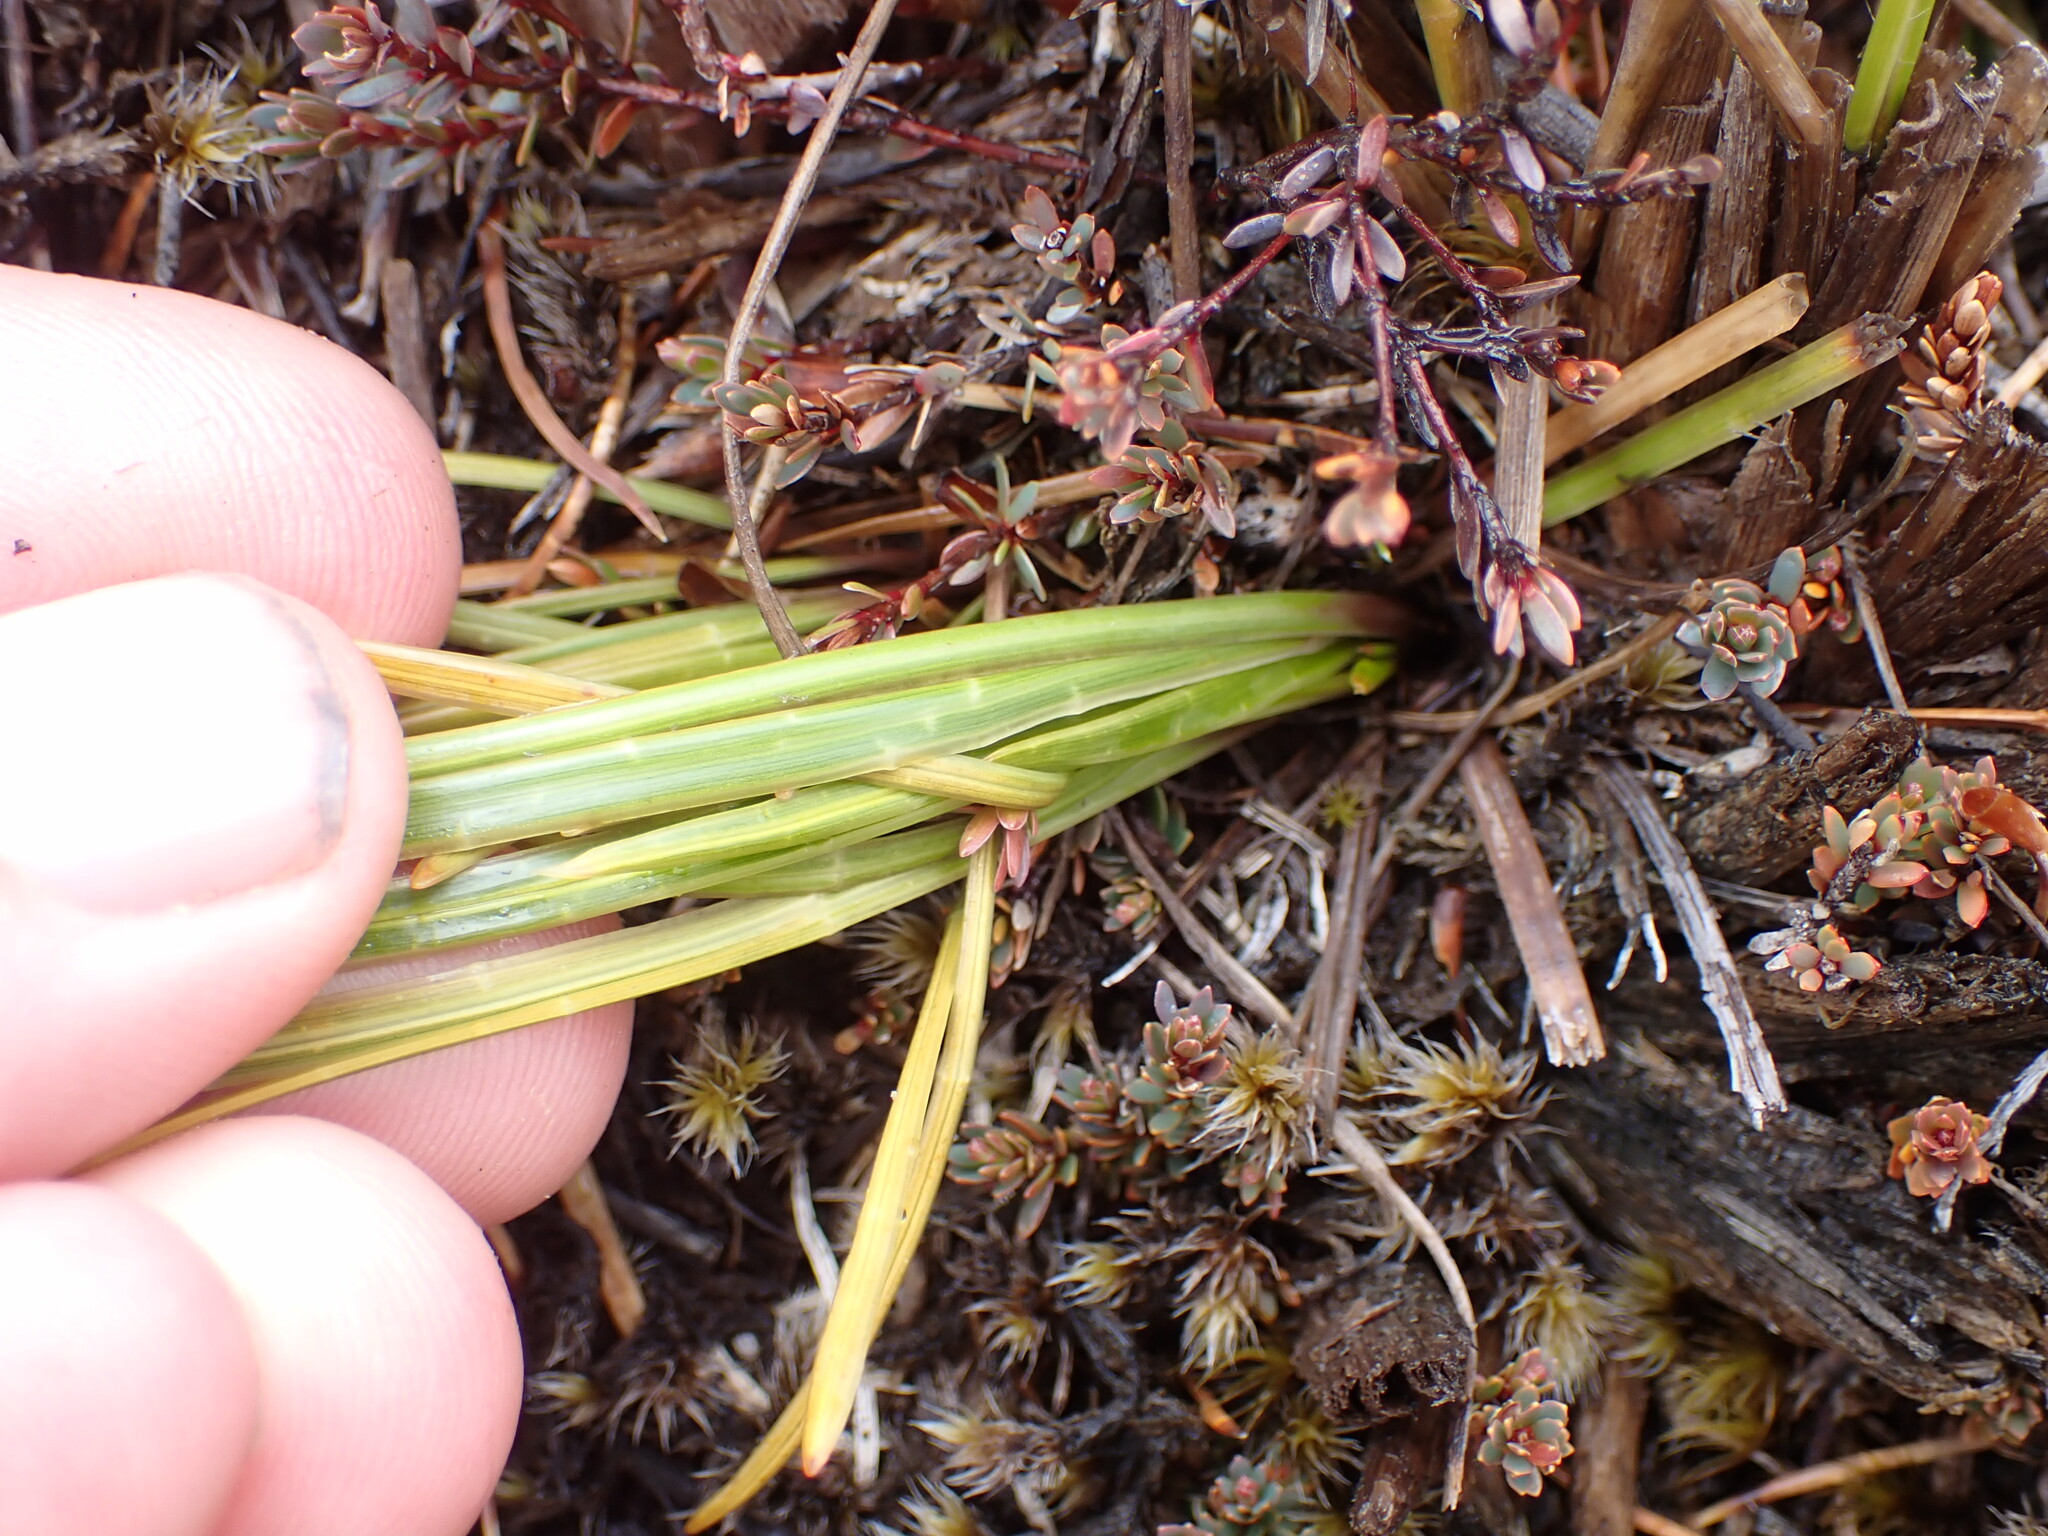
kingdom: Plantae
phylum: Tracheophyta
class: Magnoliopsida
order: Apiales
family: Apiaceae
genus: Aciphylla
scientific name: Aciphylla lyallii
